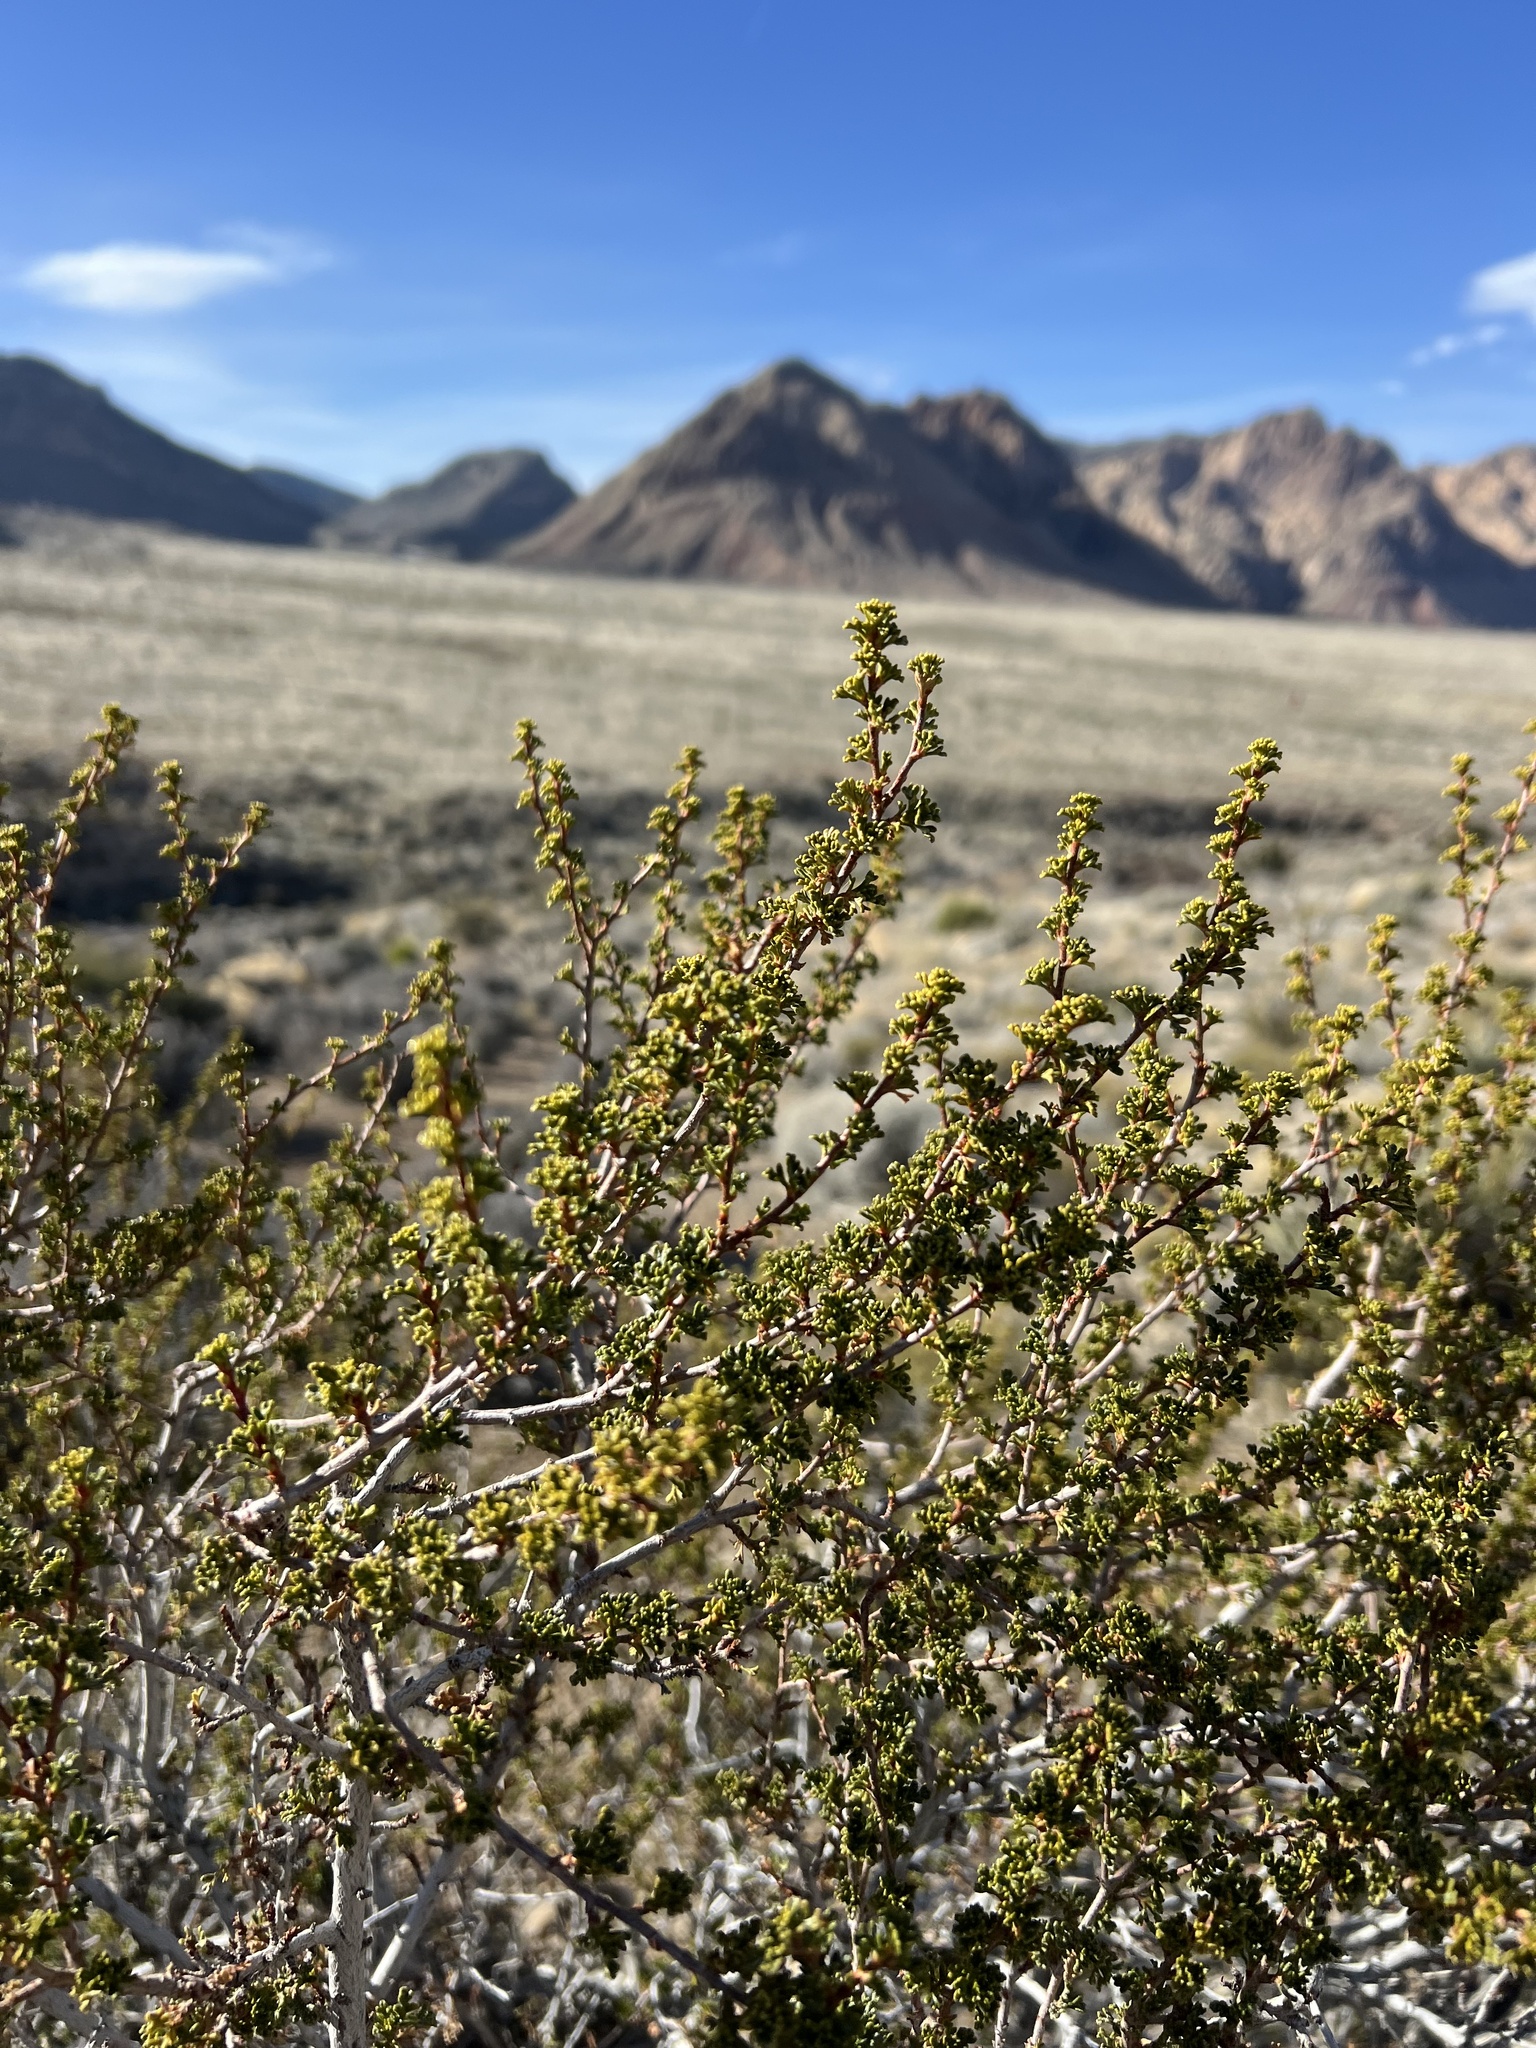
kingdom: Plantae
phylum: Tracheophyta
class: Magnoliopsida
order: Rosales
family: Rosaceae
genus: Purshia
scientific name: Purshia glandulosa
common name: Desert bitterbrush
